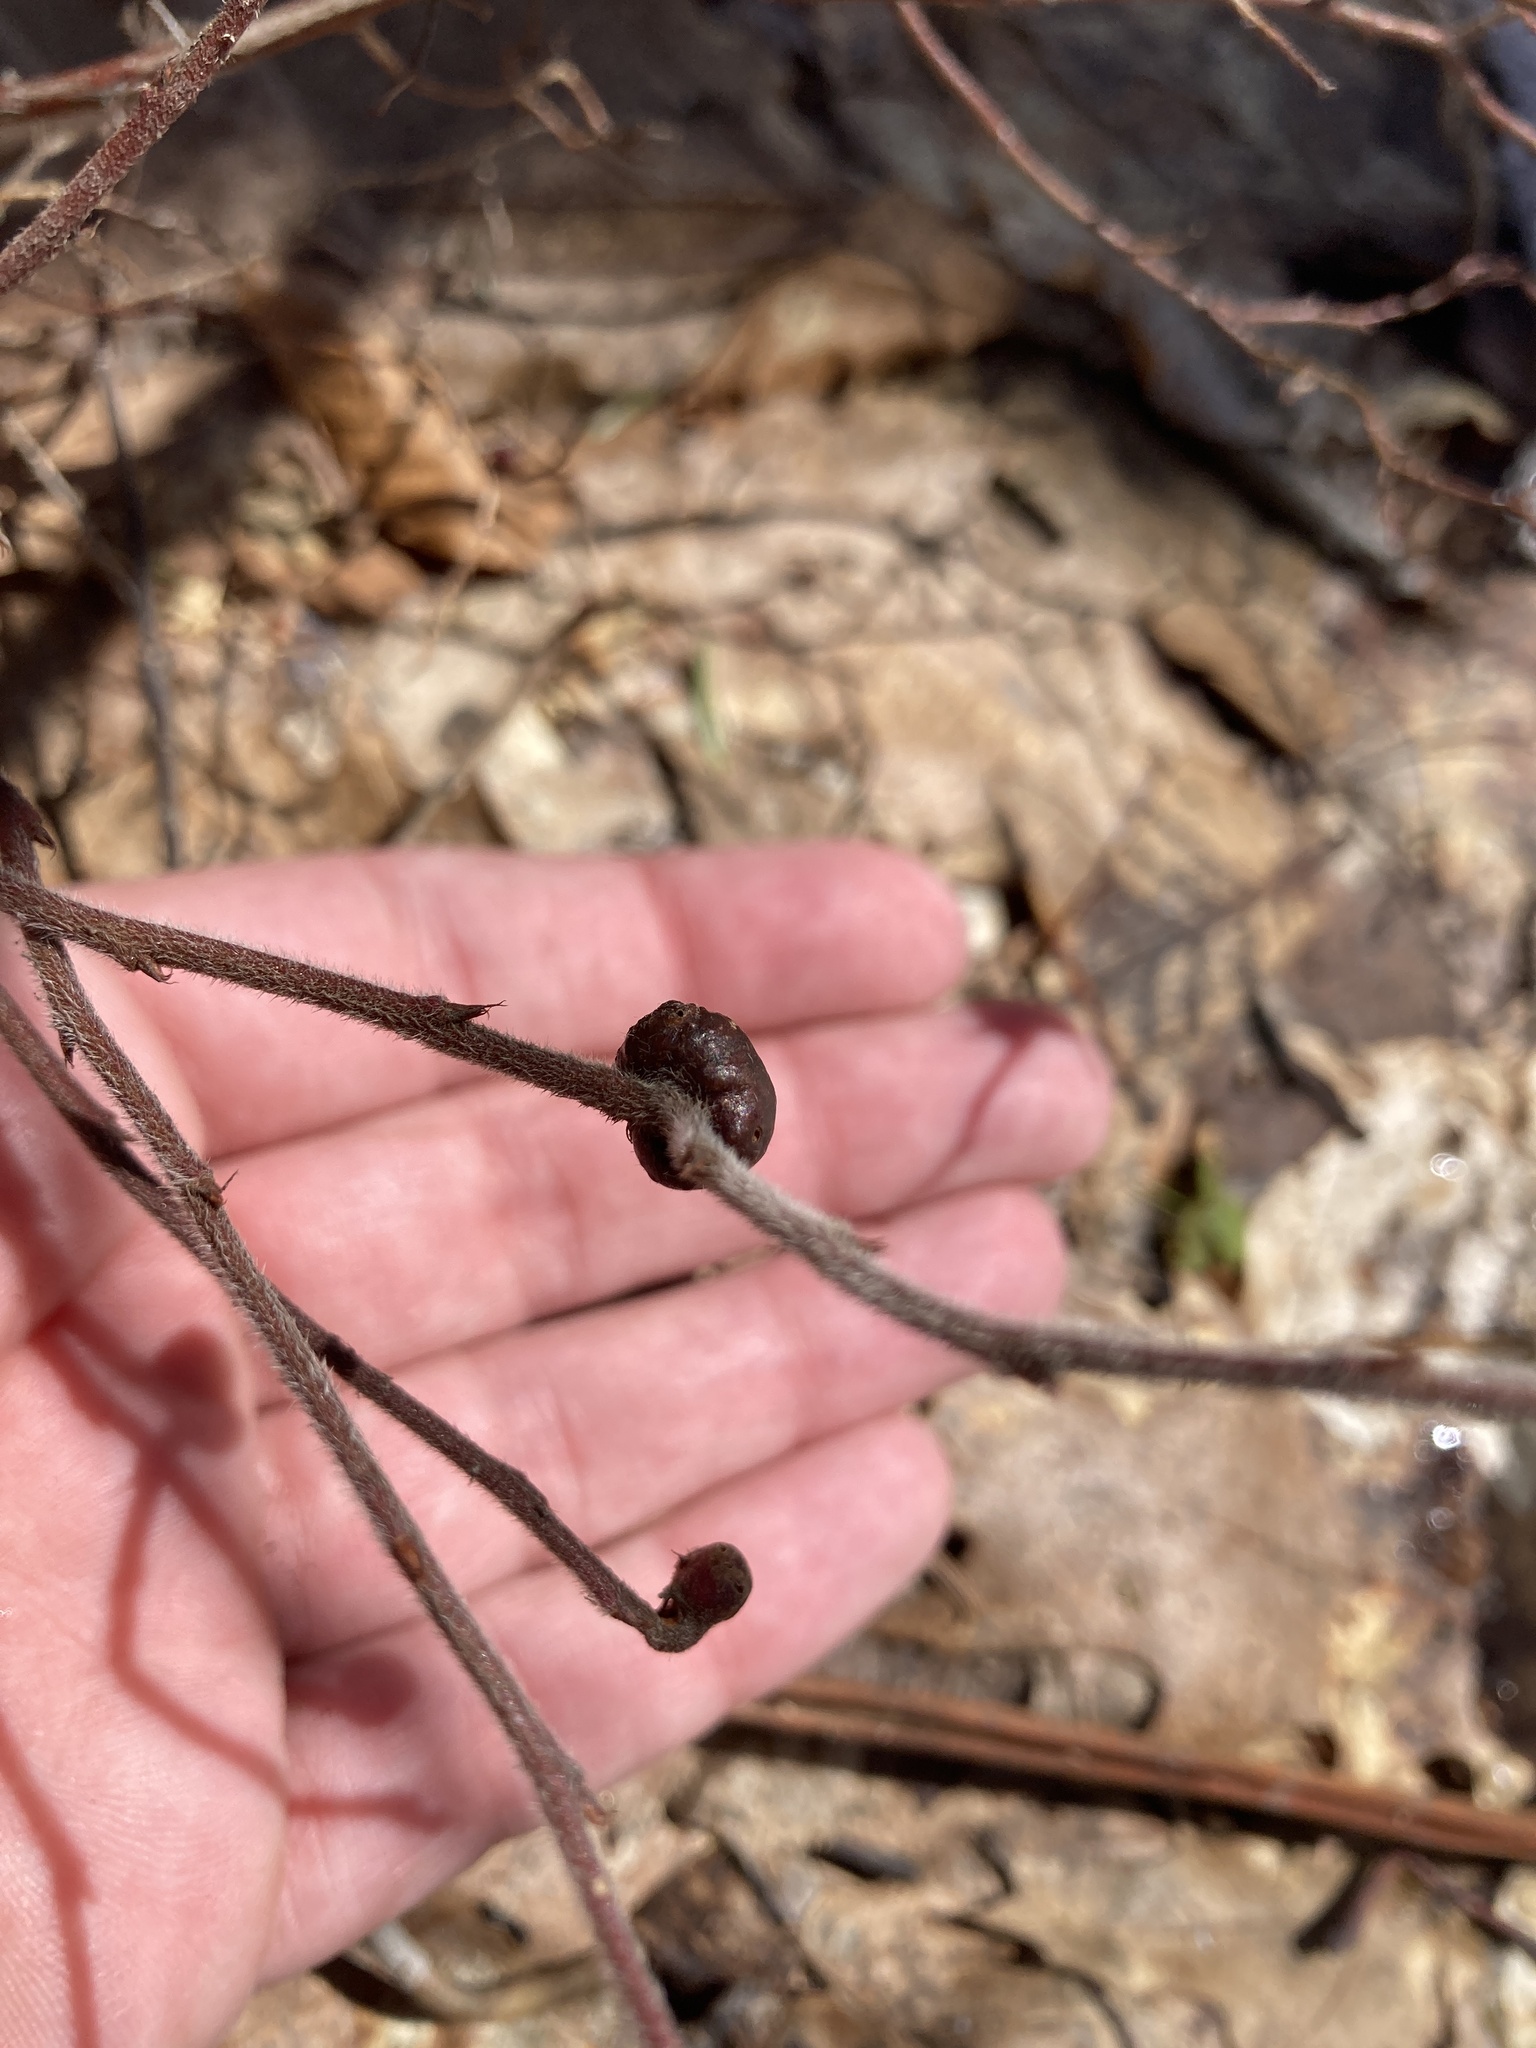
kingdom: Animalia
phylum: Arthropoda
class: Insecta
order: Hymenoptera
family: Pteromalidae
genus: Hemadas
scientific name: Hemadas nubilipennis
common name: Blueberry stem gall wasp
